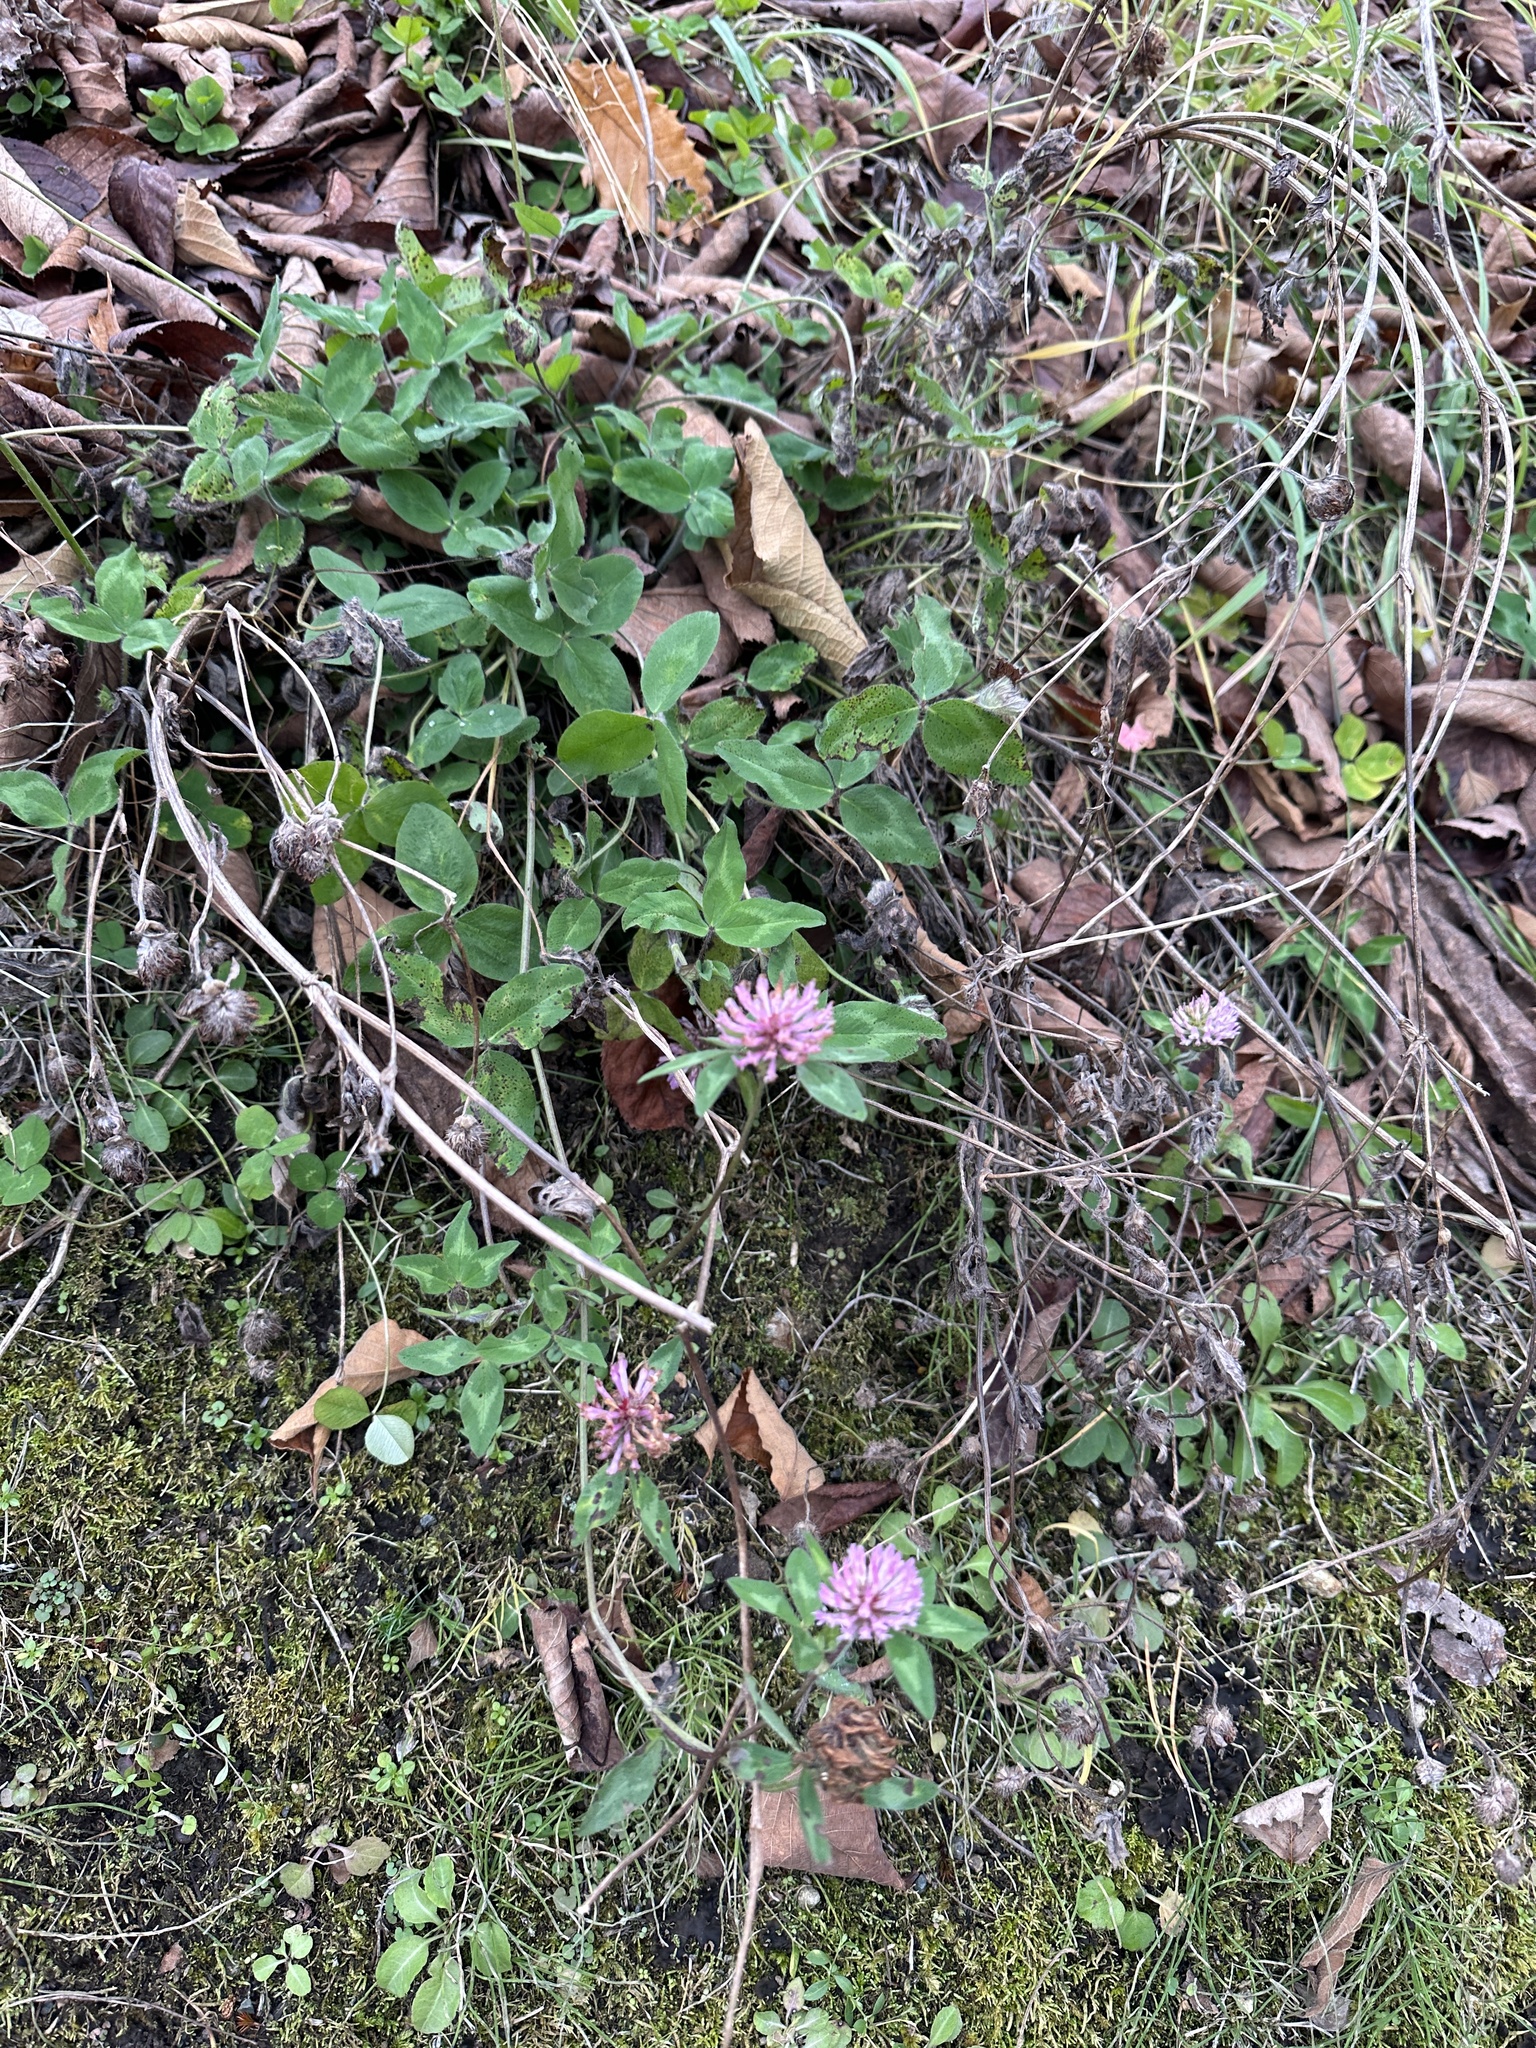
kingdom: Plantae
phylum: Tracheophyta
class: Magnoliopsida
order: Fabales
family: Fabaceae
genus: Trifolium
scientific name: Trifolium pratense
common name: Red clover
